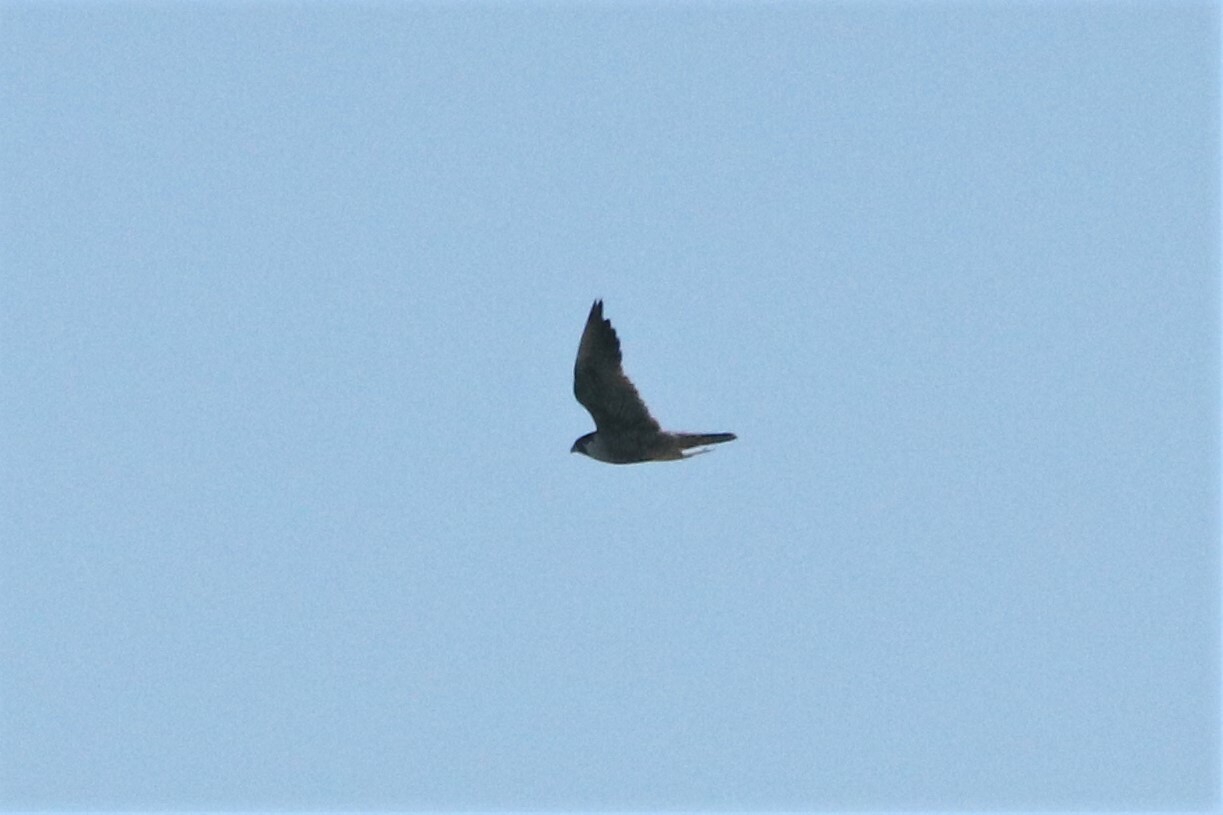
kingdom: Animalia
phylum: Chordata
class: Aves
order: Falconiformes
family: Falconidae
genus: Falco
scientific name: Falco peregrinus
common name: Peregrine falcon
